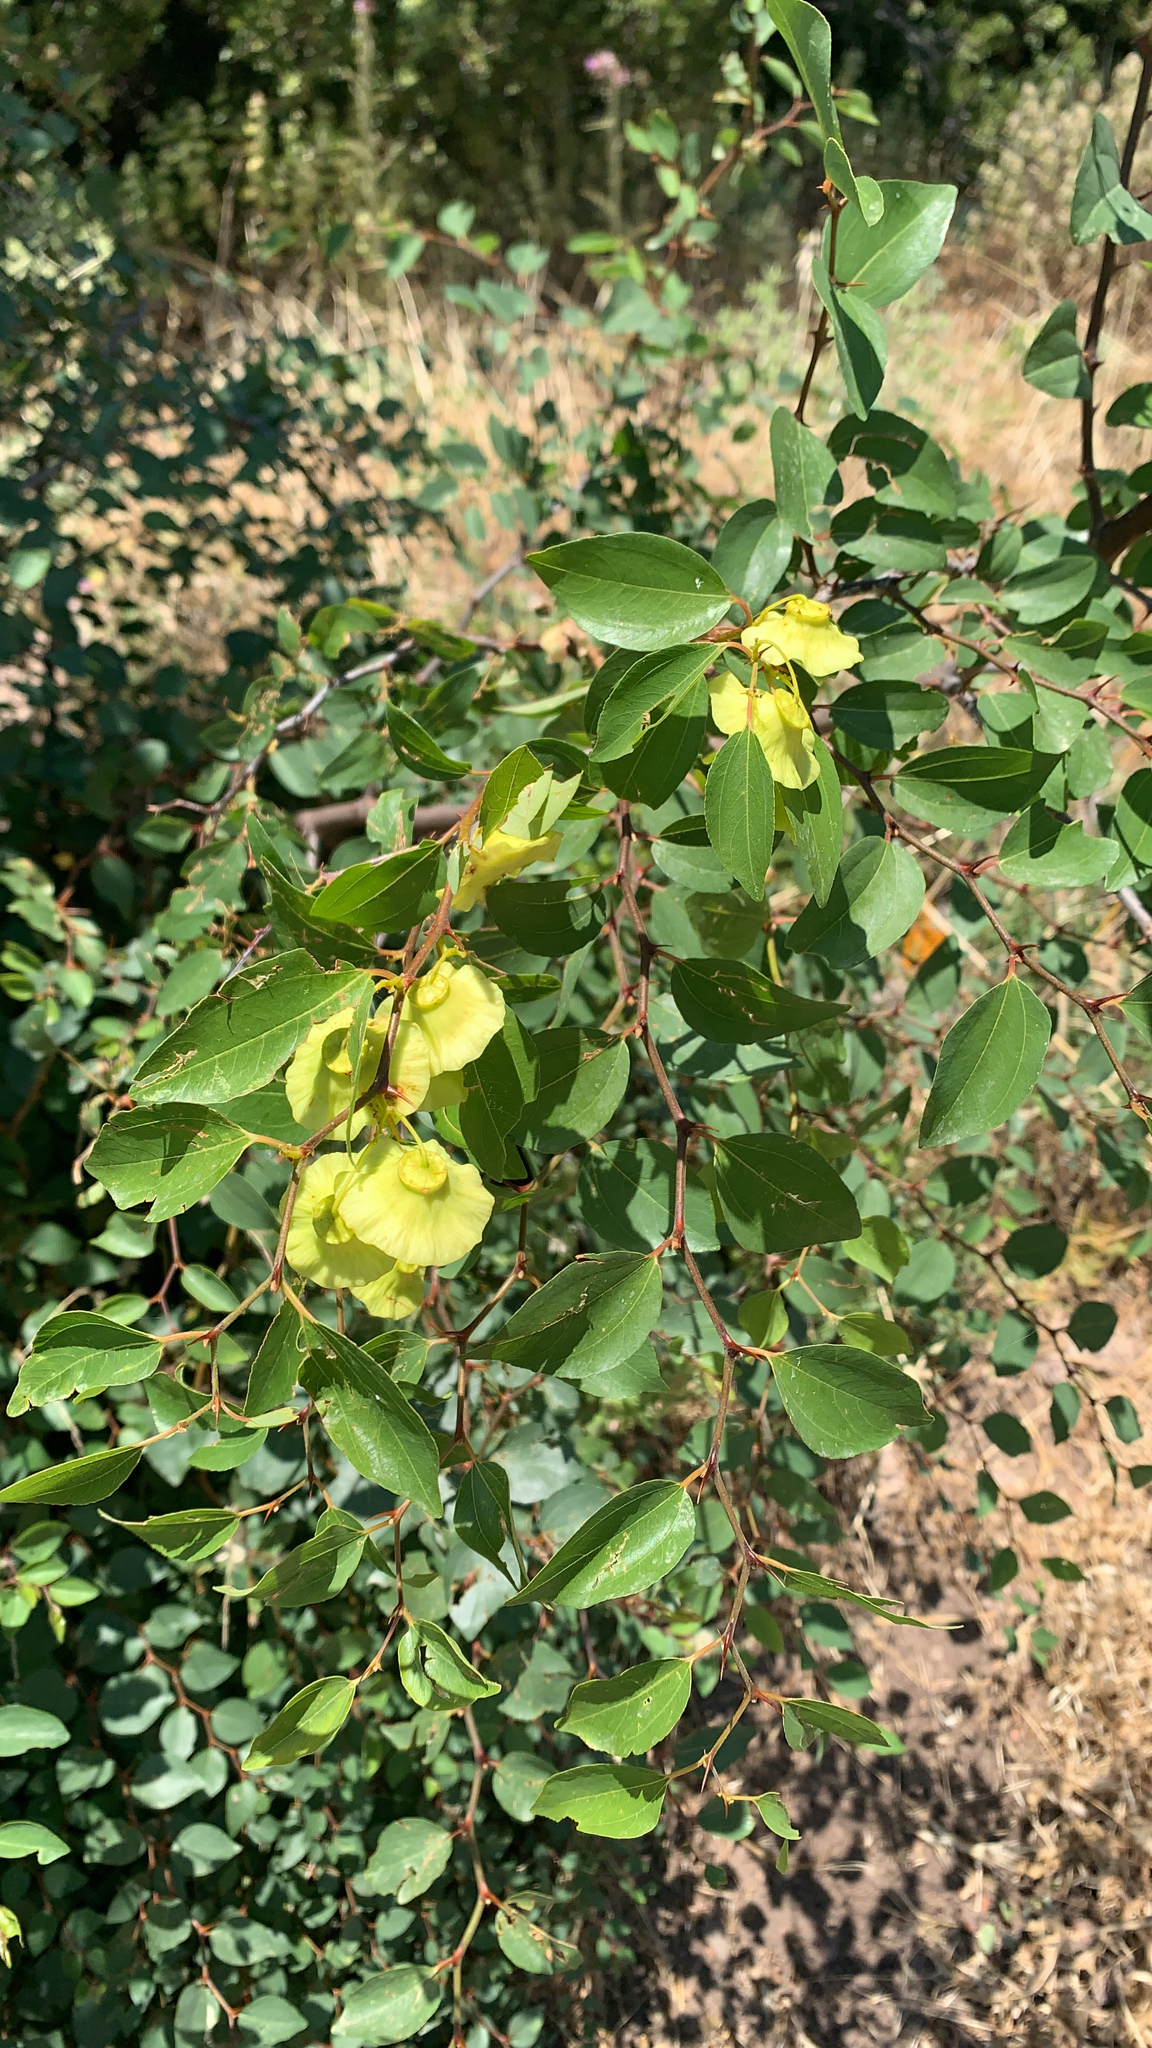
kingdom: Plantae
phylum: Tracheophyta
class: Magnoliopsida
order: Rosales
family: Rhamnaceae
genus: Paliurus
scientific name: Paliurus spina-christi
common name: Jeruselem thorn
